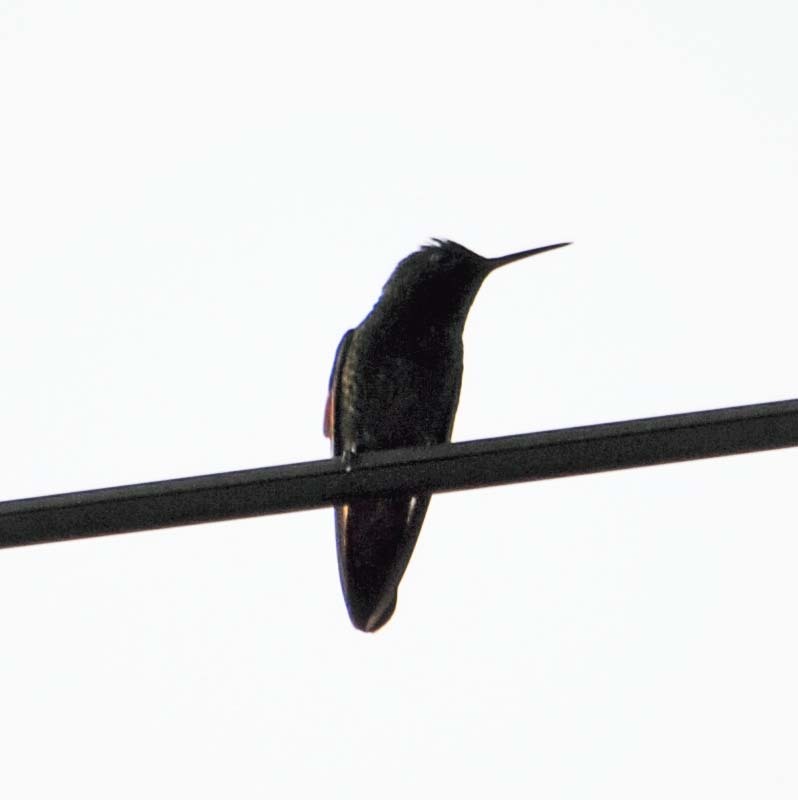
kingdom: Animalia
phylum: Chordata
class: Aves
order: Apodiformes
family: Trochilidae
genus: Saucerottia
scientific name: Saucerottia beryllina
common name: Berylline hummingbird
